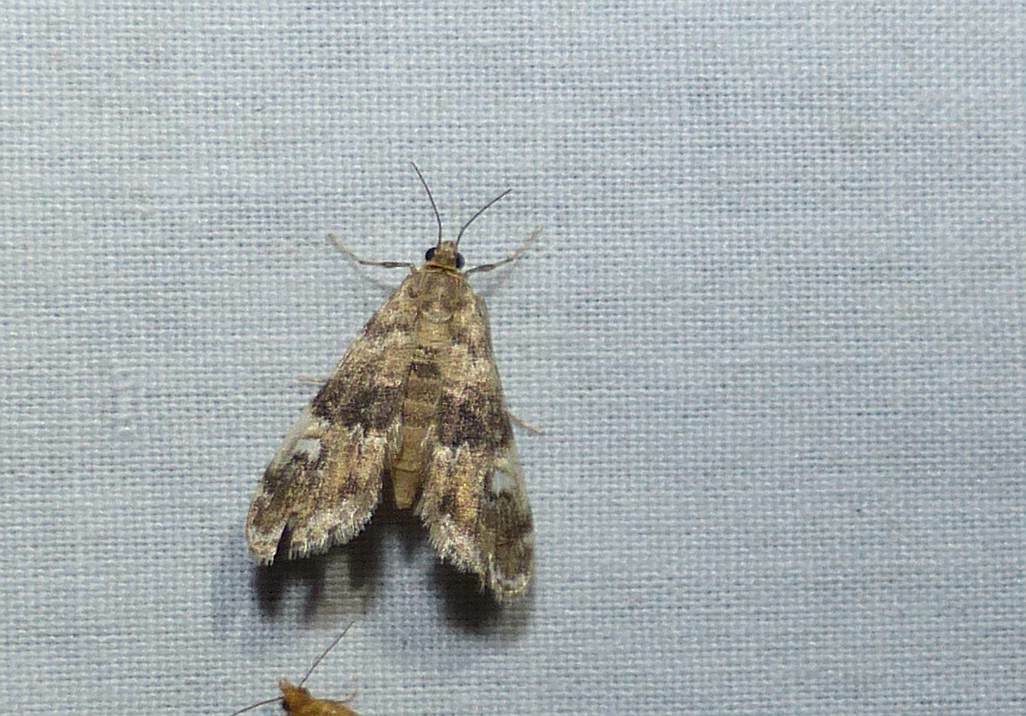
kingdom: Animalia
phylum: Arthropoda
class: Insecta
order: Lepidoptera
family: Crambidae
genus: Elophila
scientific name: Elophila obliteralis
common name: Waterlily leafcutter moth
